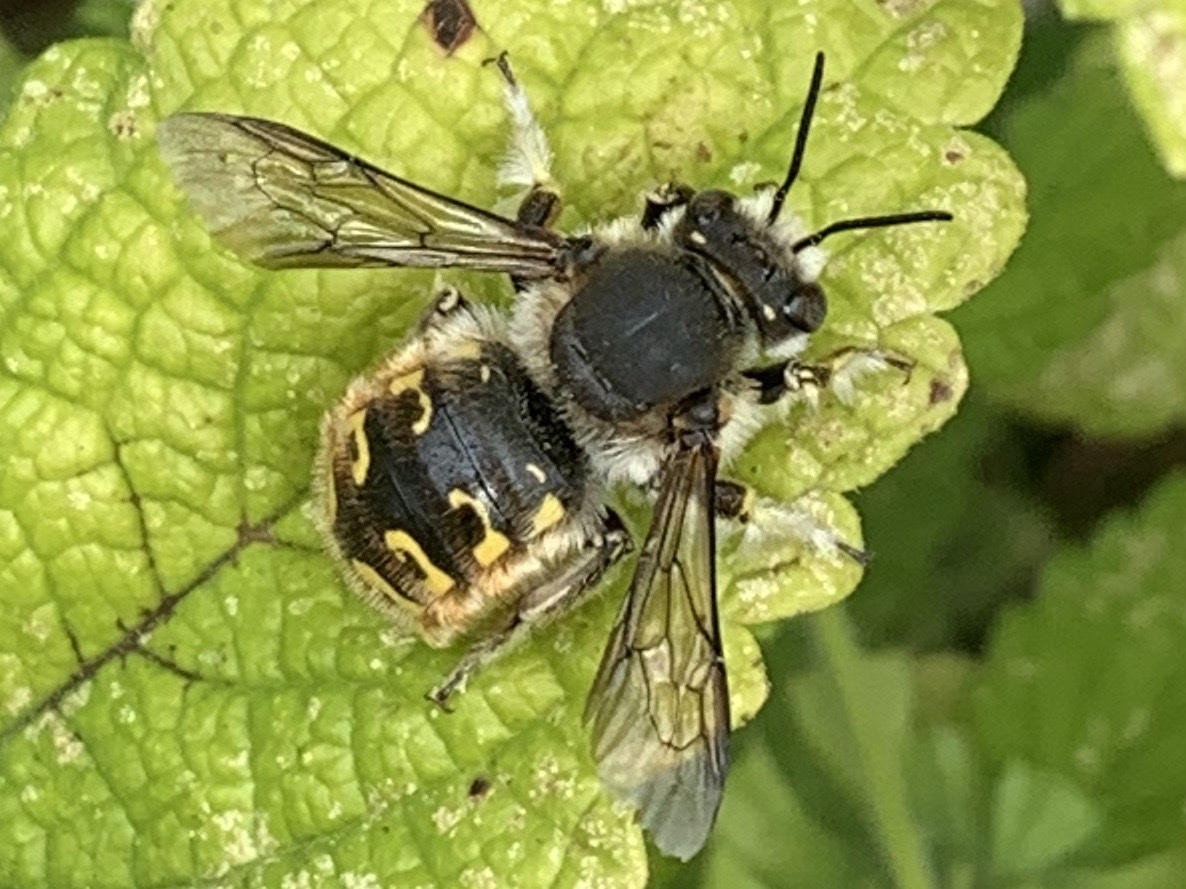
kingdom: Animalia
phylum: Arthropoda
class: Insecta
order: Hymenoptera
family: Megachilidae
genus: Anthidium
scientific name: Anthidium manicatum
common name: Wool carder bee
